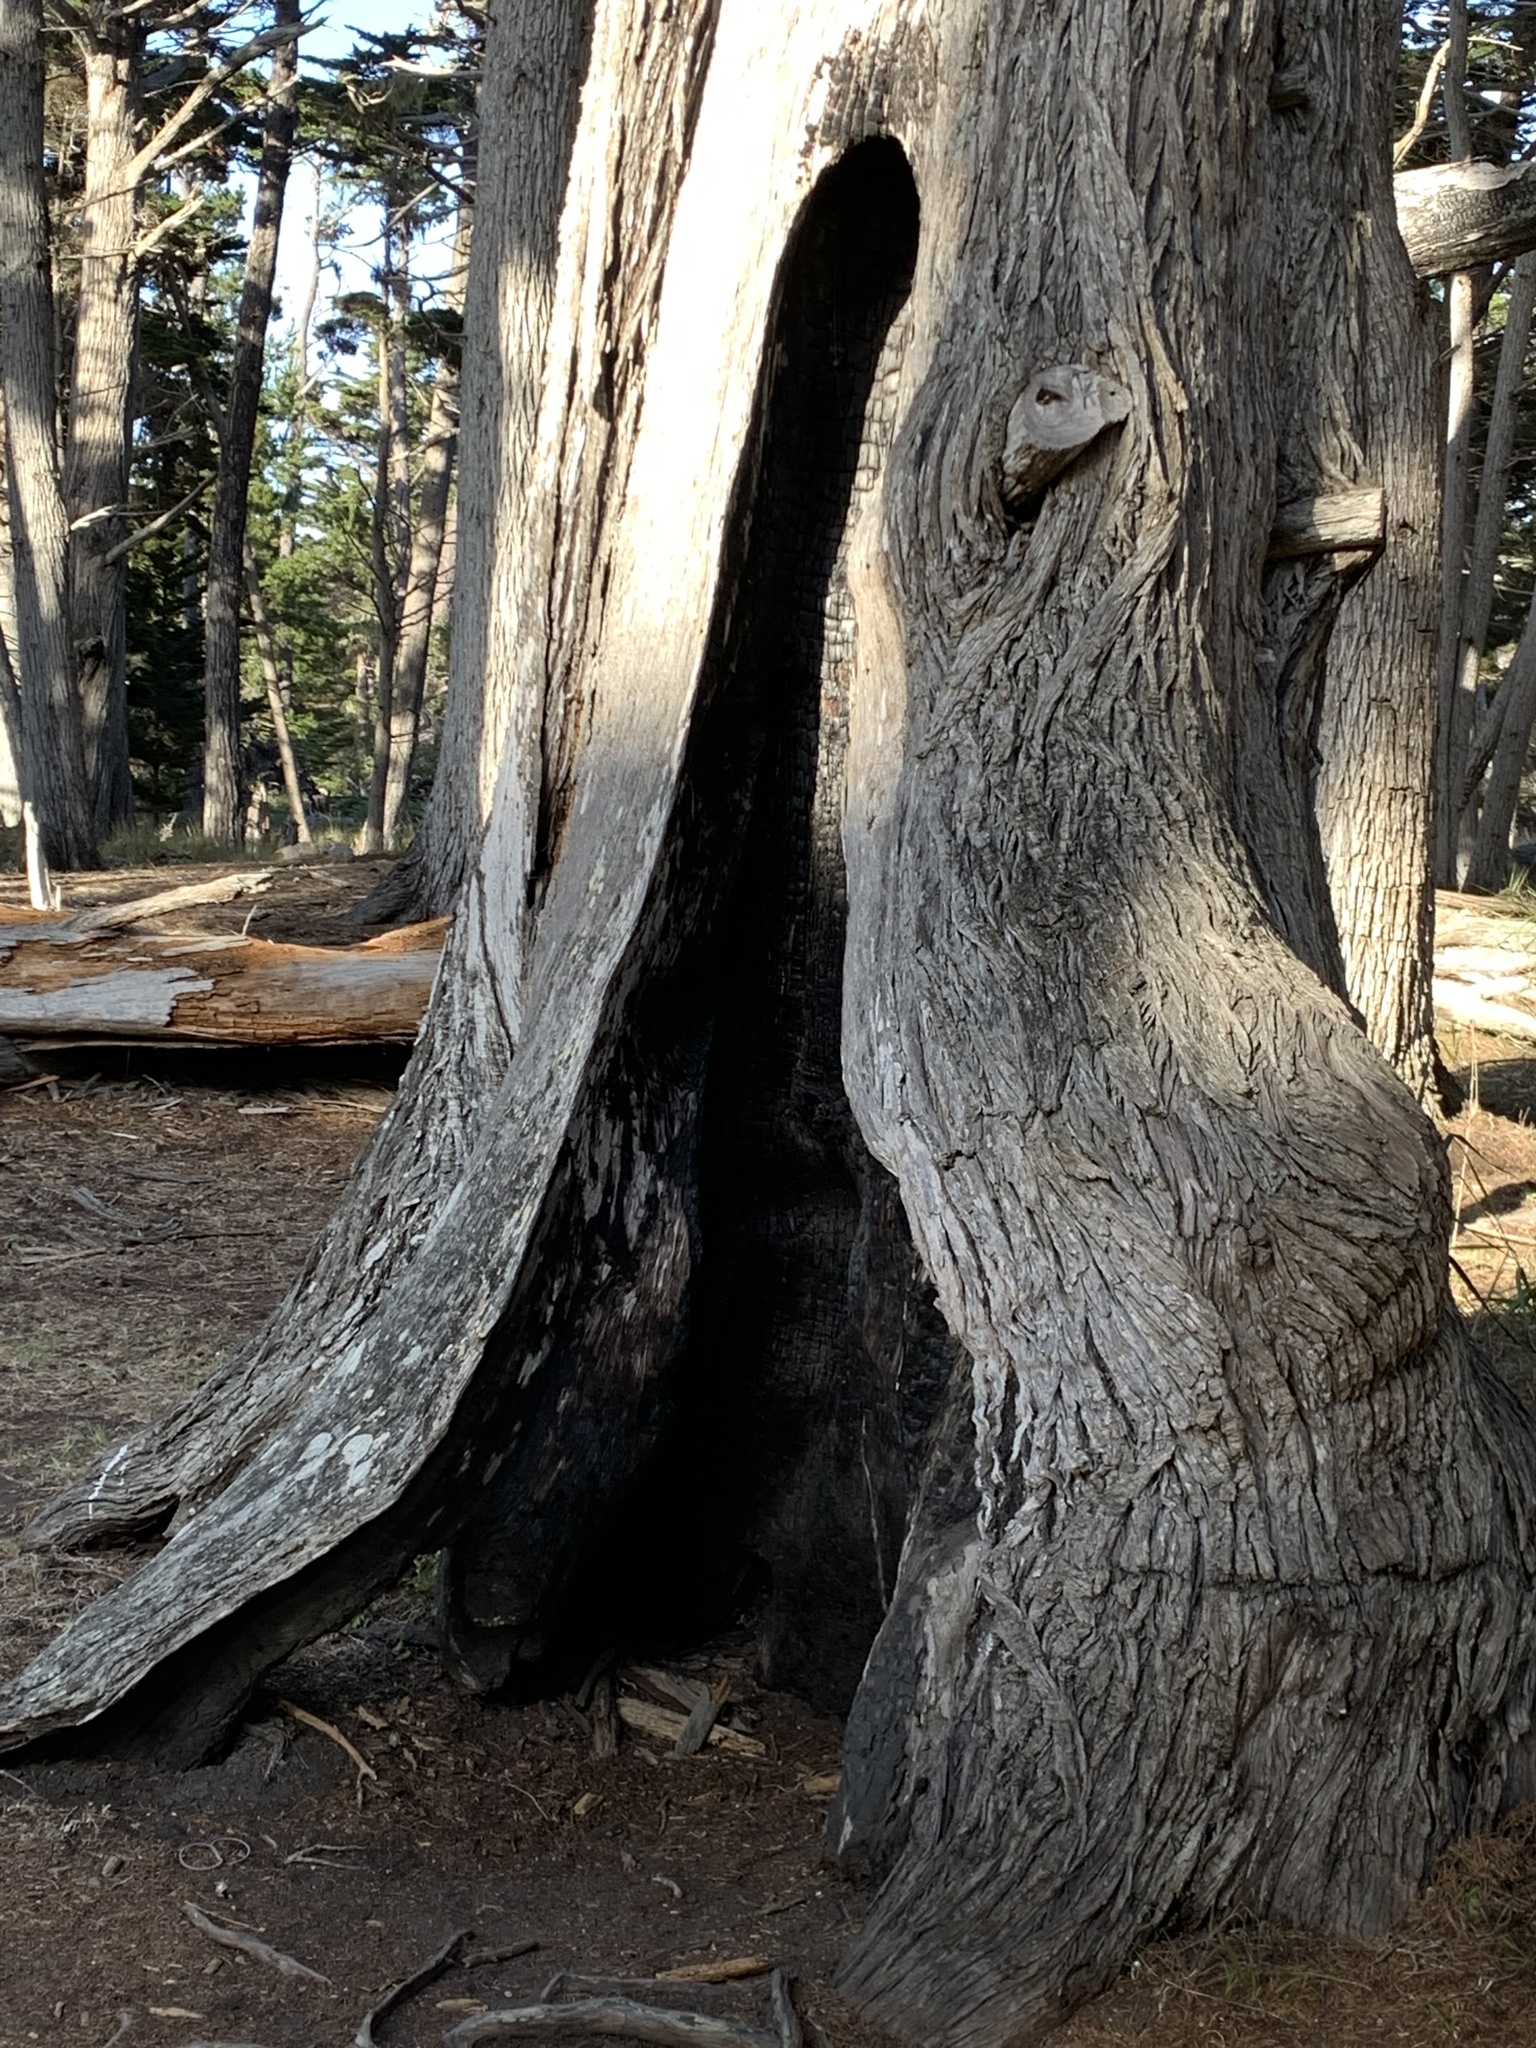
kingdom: Plantae
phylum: Tracheophyta
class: Pinopsida
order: Pinales
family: Cupressaceae
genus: Cupressus
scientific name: Cupressus macrocarpa
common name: Monterey cypress
